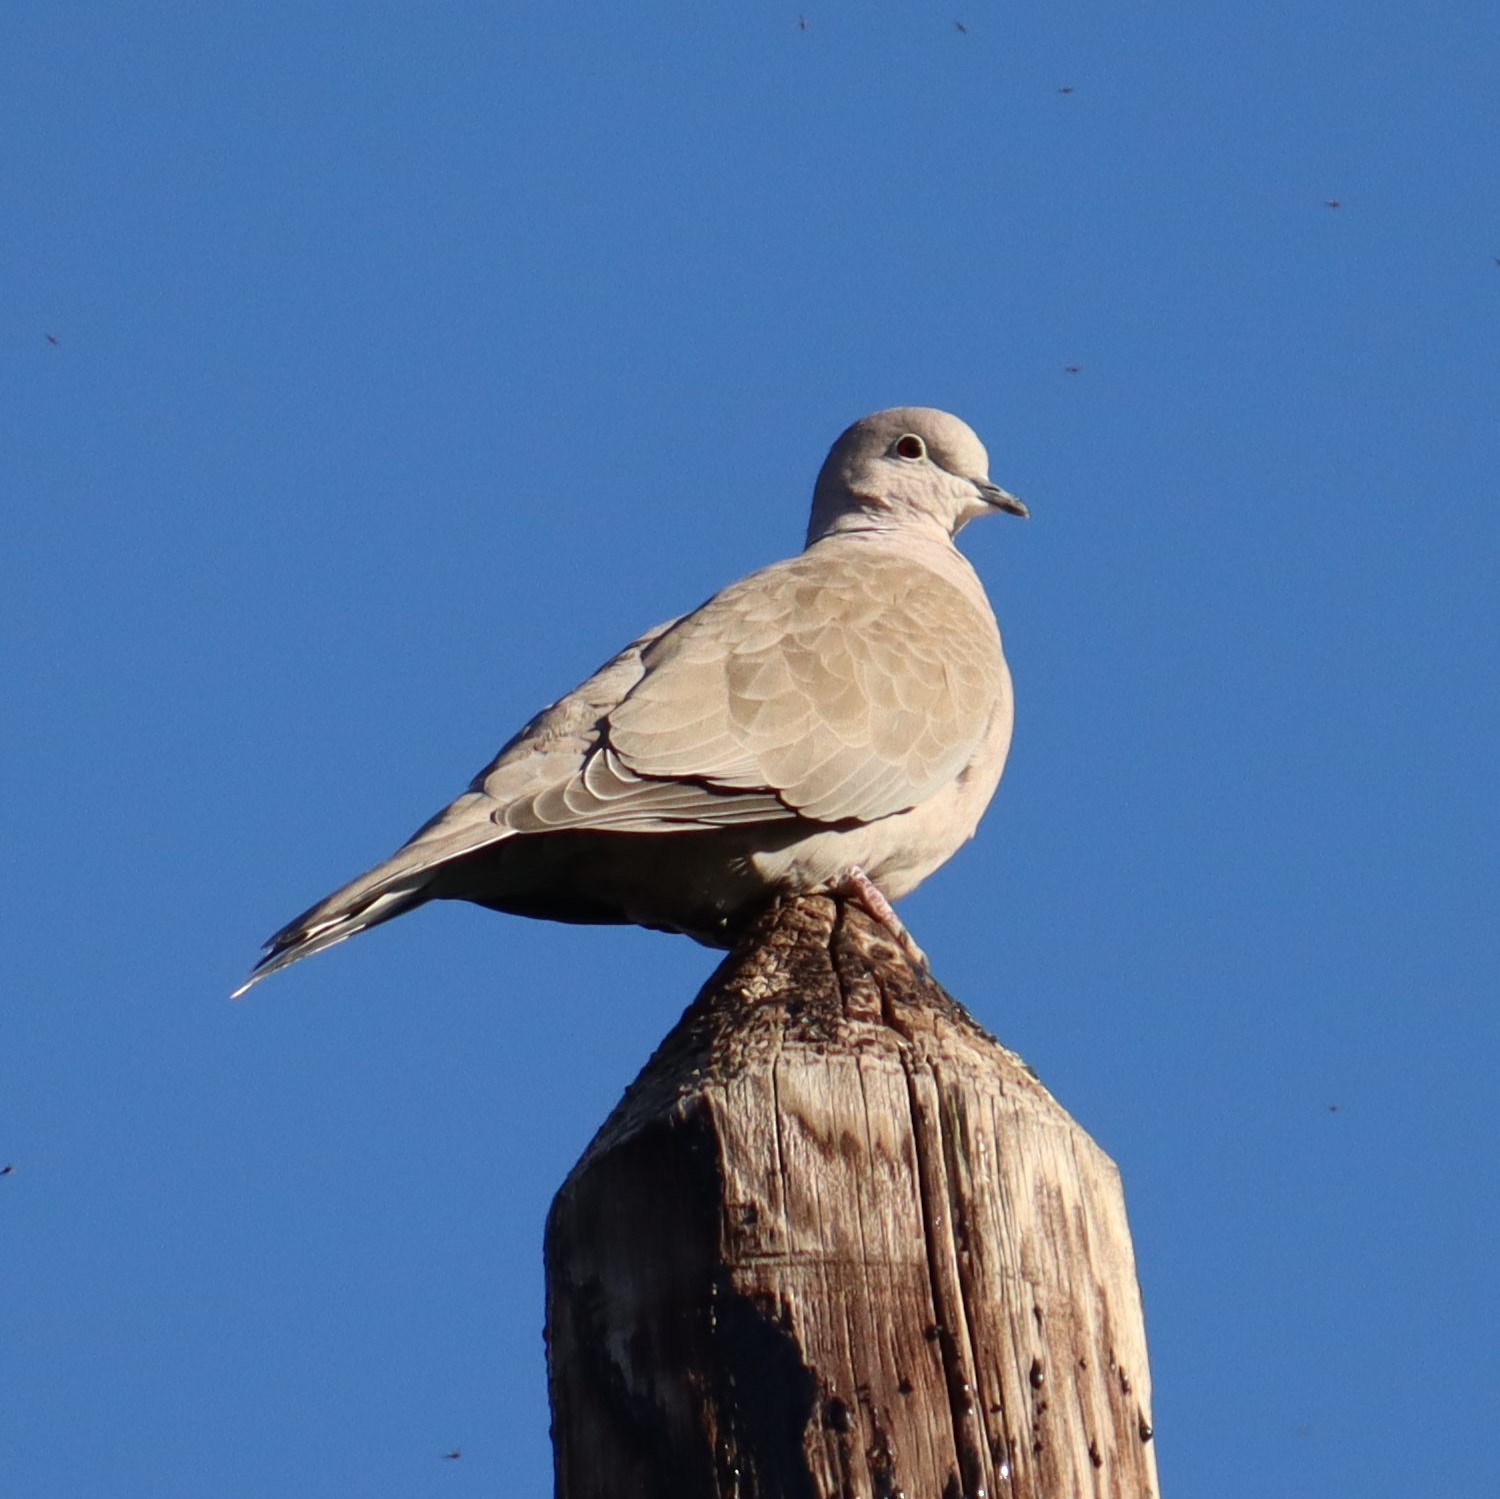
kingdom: Animalia
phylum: Chordata
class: Aves
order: Columbiformes
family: Columbidae
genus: Streptopelia
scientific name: Streptopelia decaocto
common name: Eurasian collared dove
